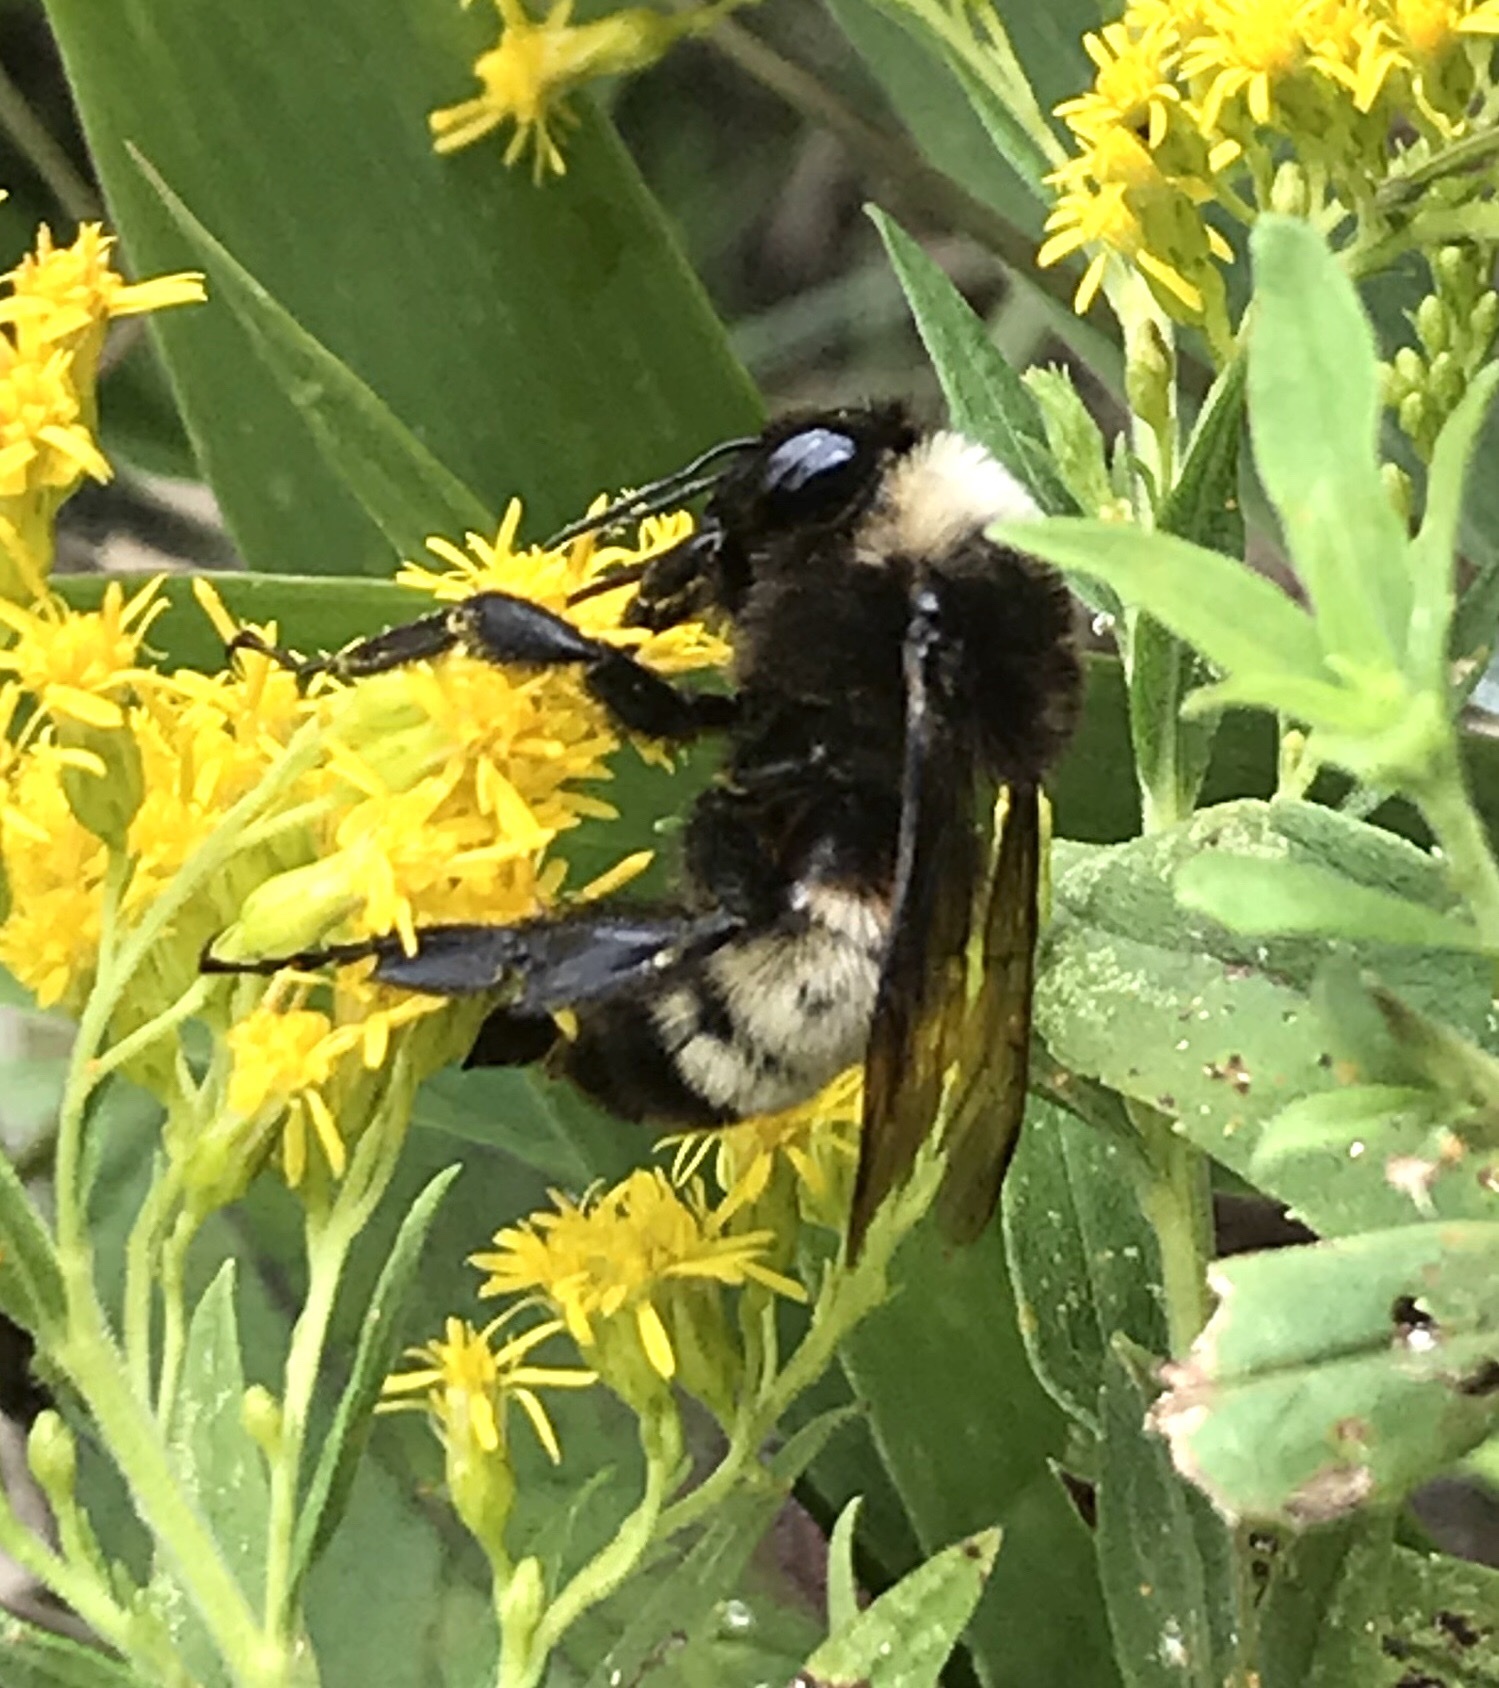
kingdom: Animalia
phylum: Arthropoda
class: Insecta
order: Hymenoptera
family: Apidae
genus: Bombus
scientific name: Bombus pensylvanicus
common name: Bumble bee
